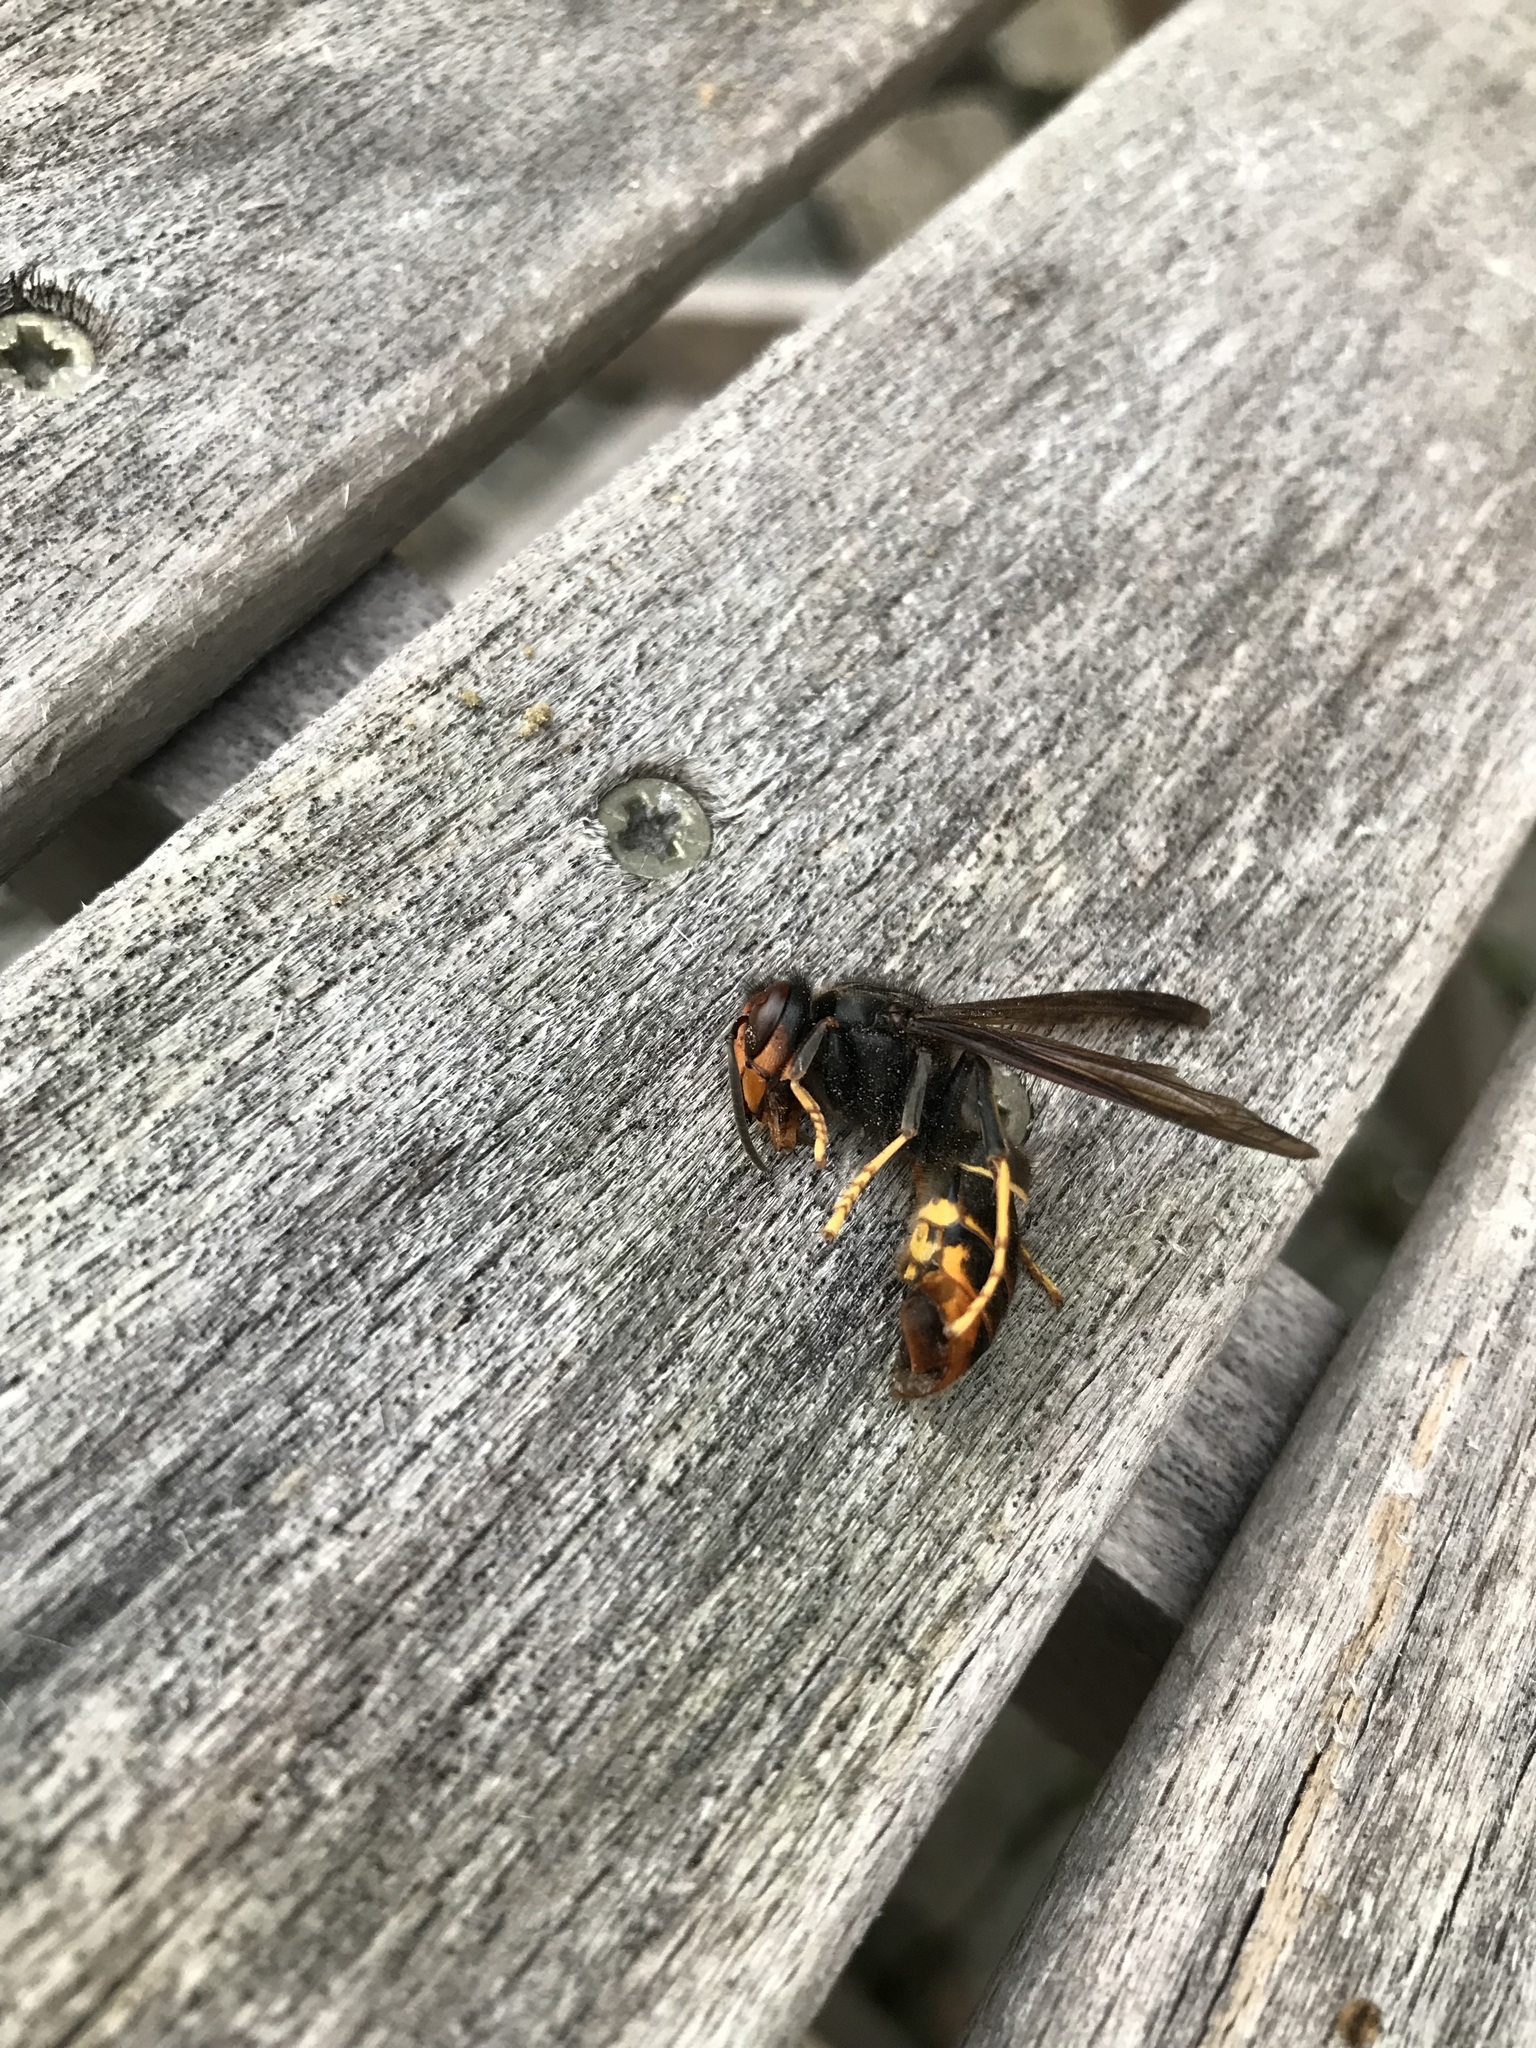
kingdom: Animalia
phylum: Arthropoda
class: Insecta
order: Hymenoptera
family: Vespidae
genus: Vespa
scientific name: Vespa velutina
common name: Asian hornet
